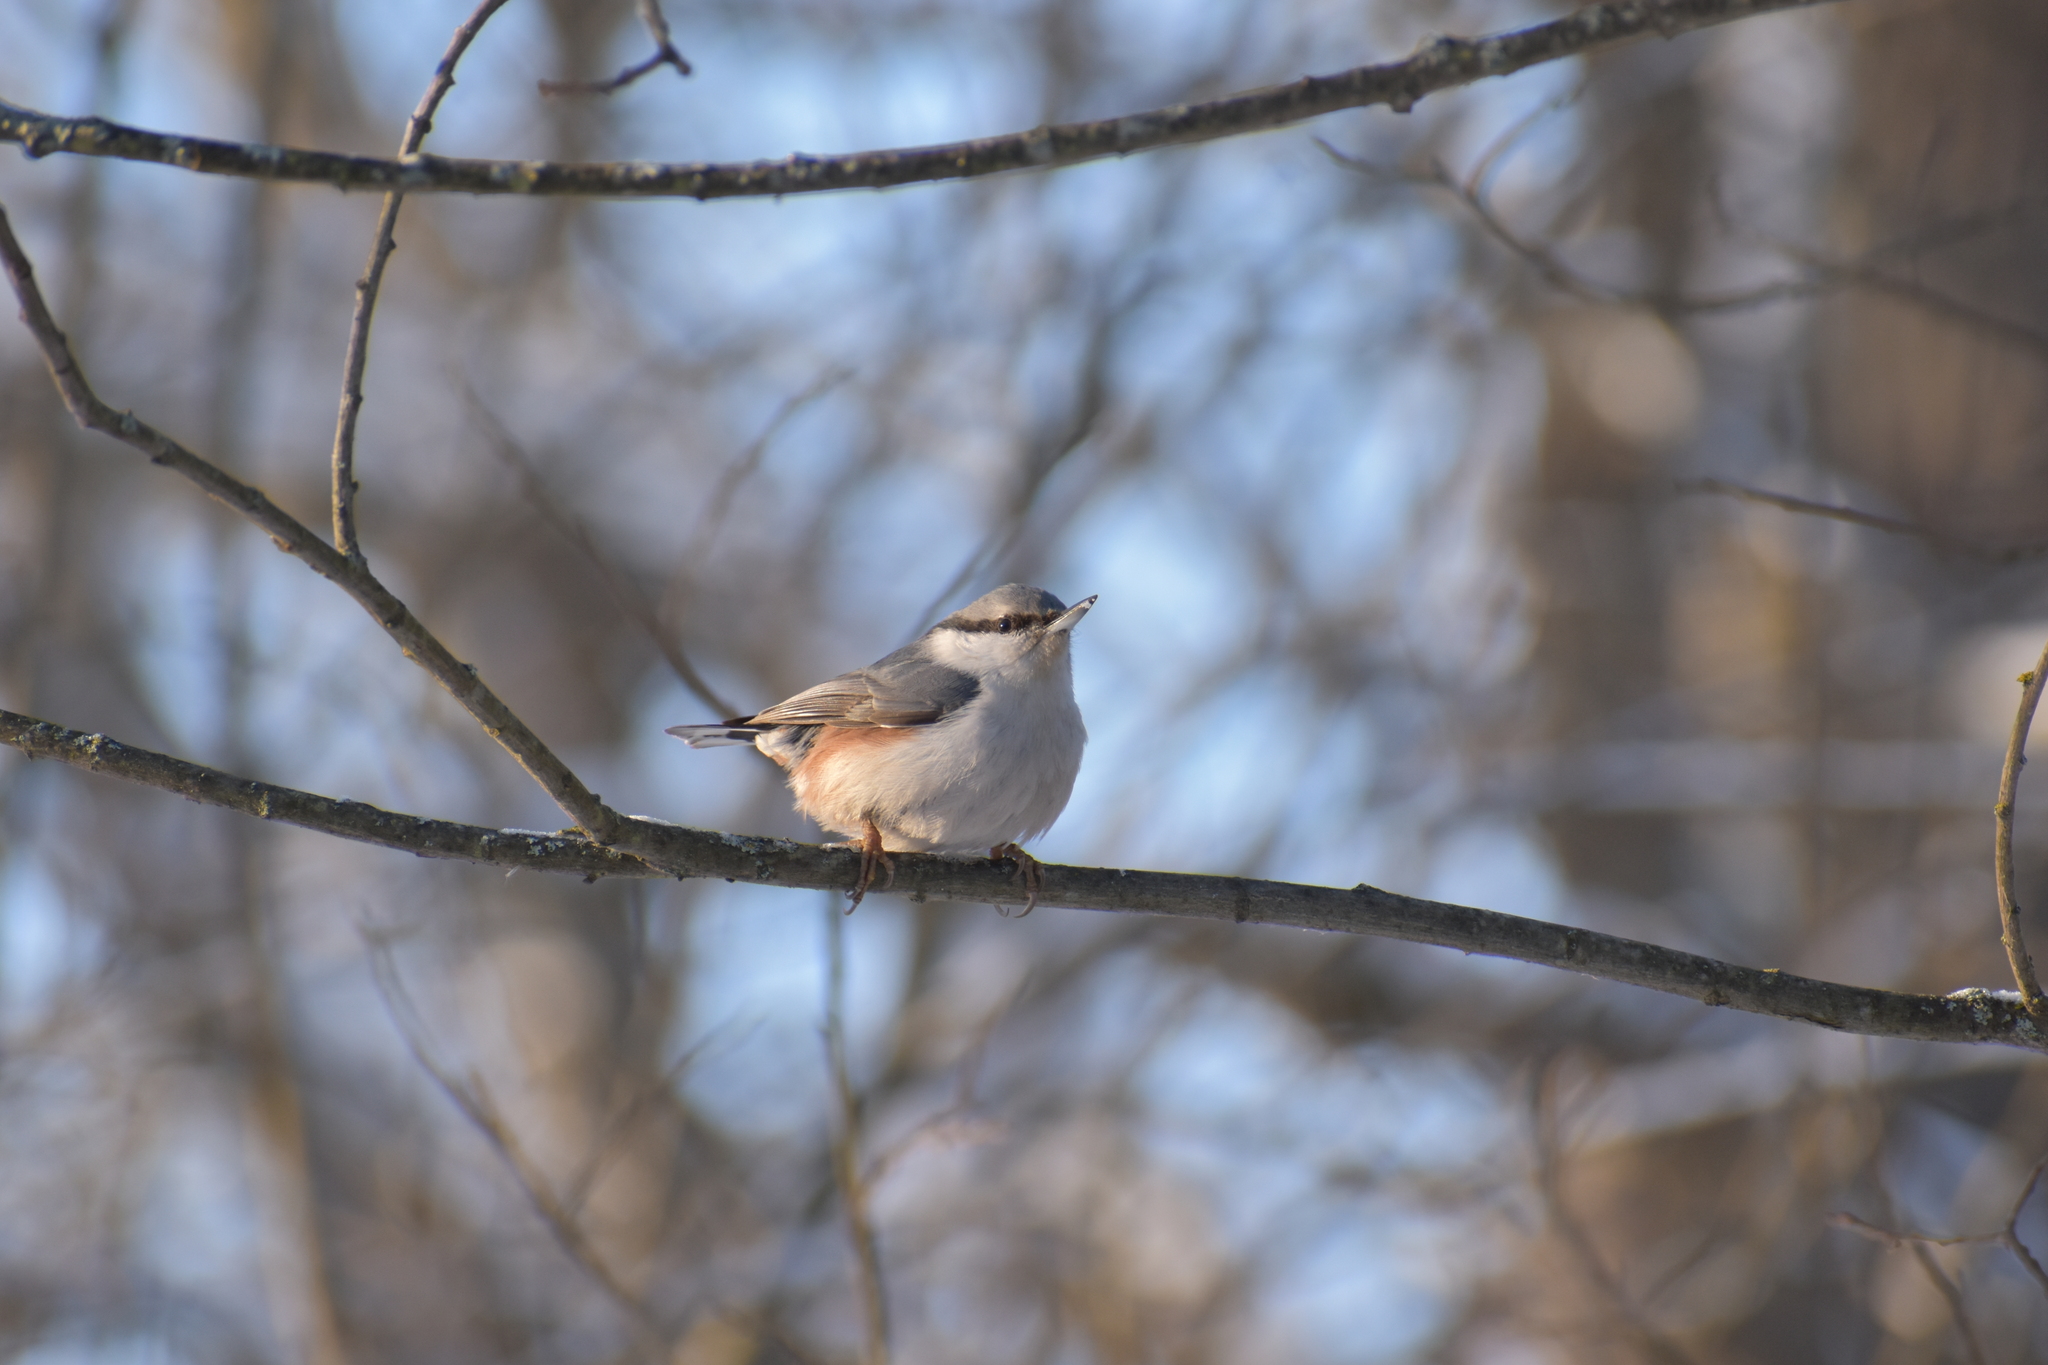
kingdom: Animalia
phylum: Chordata
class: Aves
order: Passeriformes
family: Sittidae
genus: Sitta
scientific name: Sitta europaea
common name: Eurasian nuthatch
